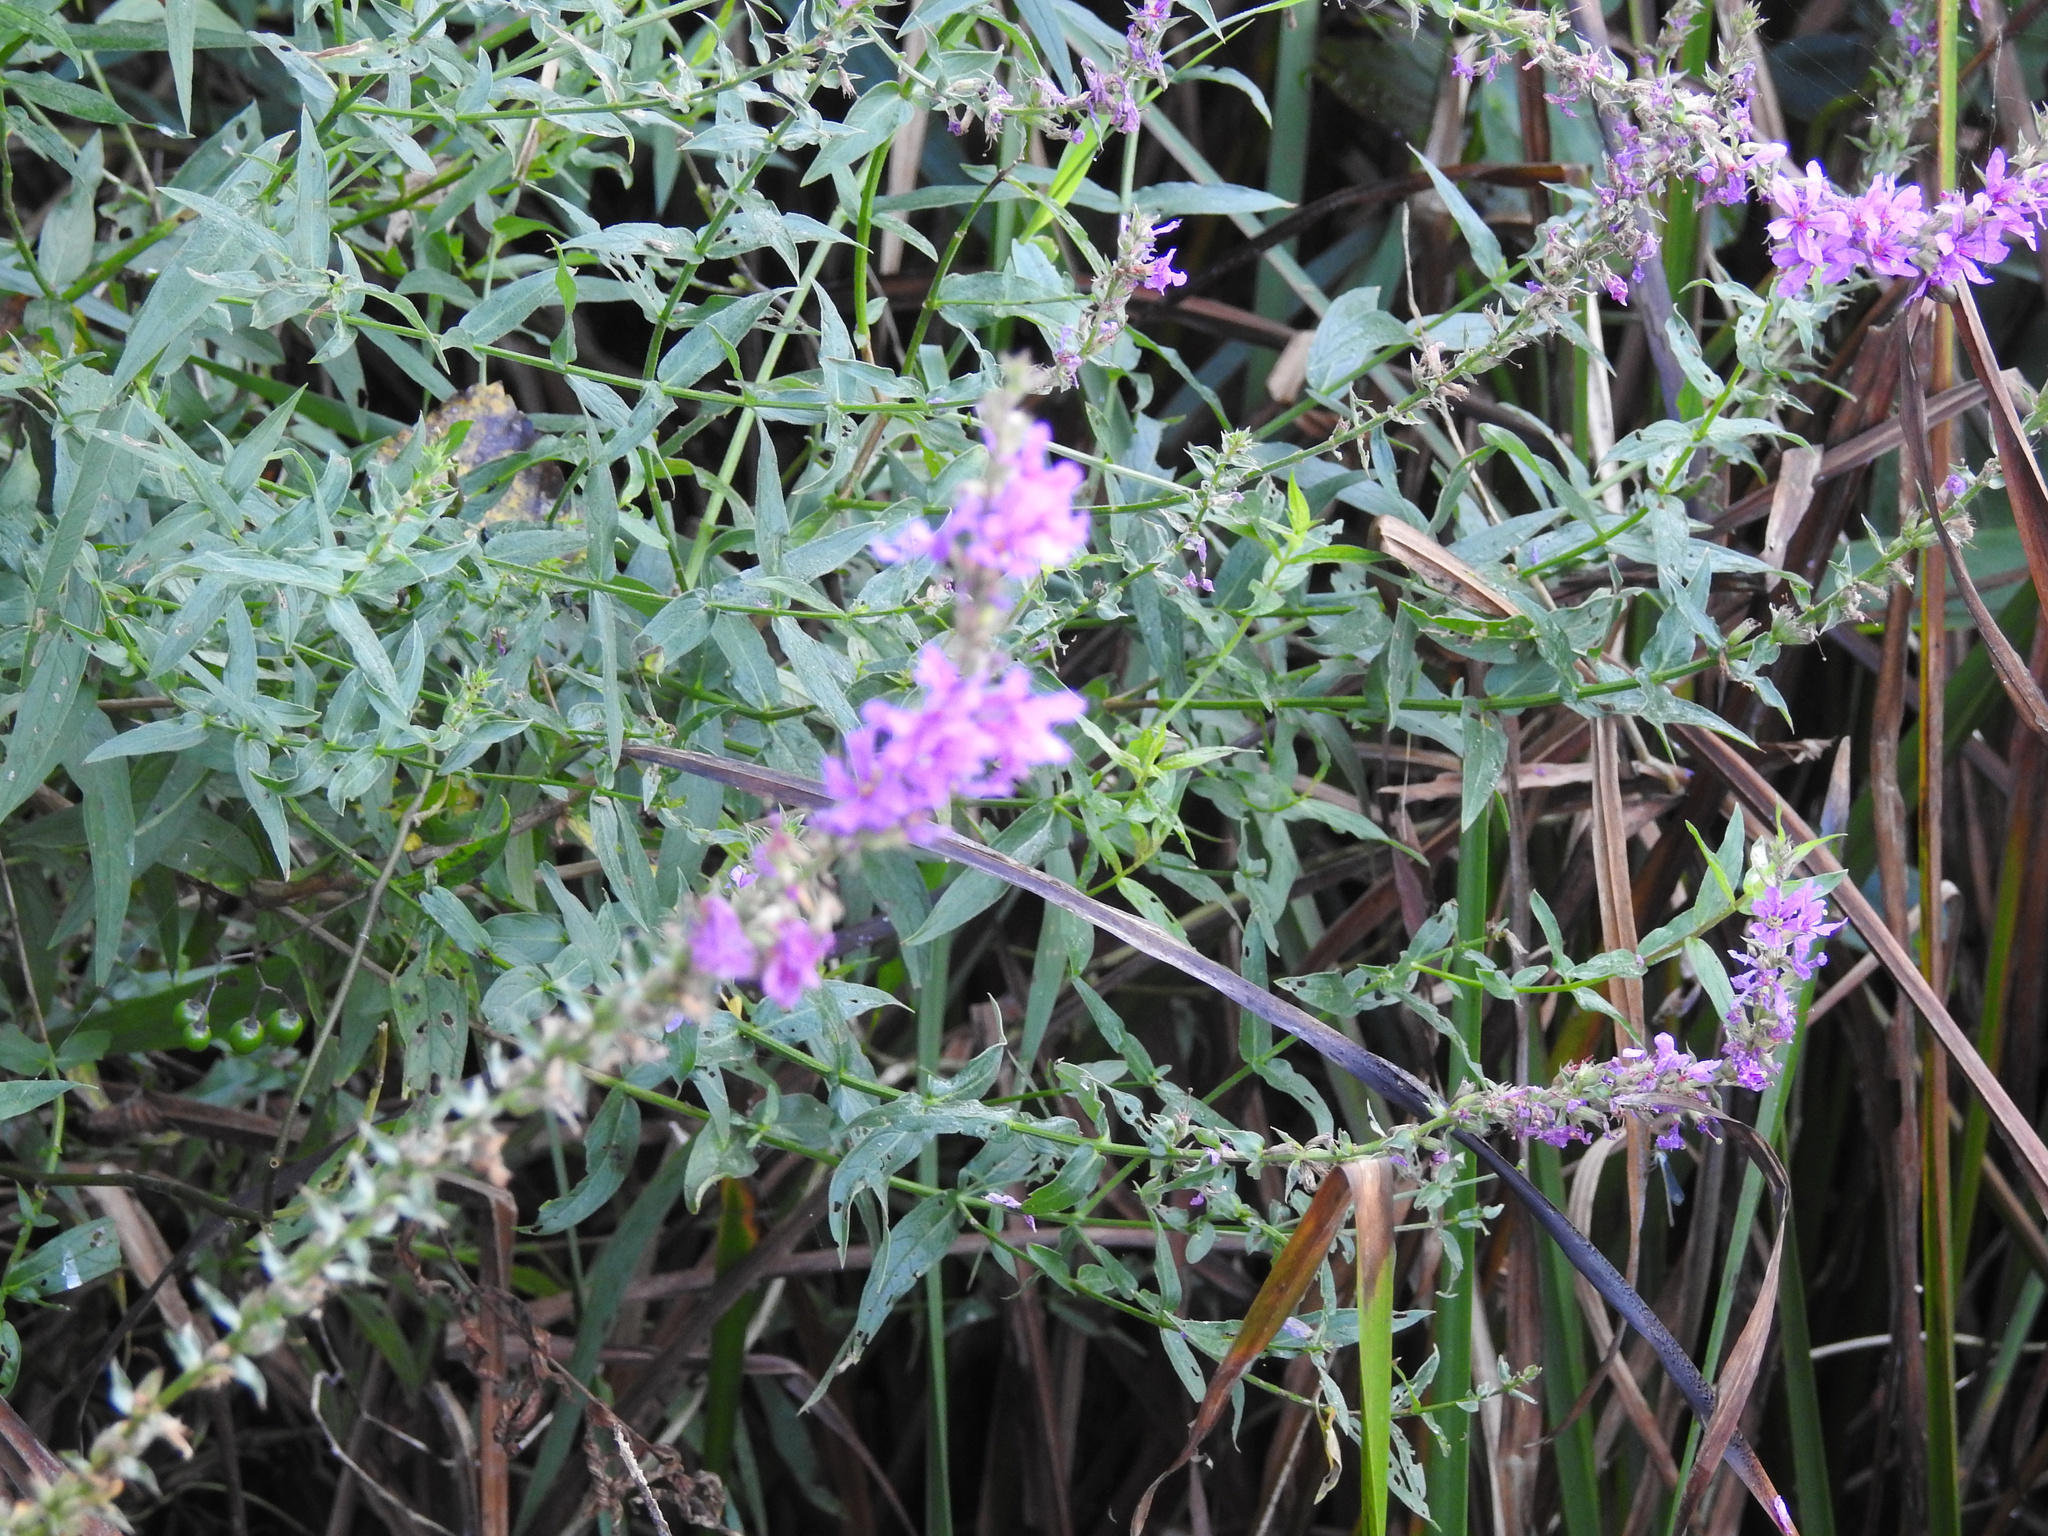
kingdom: Plantae
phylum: Tracheophyta
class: Magnoliopsida
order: Myrtales
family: Lythraceae
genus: Lythrum
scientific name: Lythrum salicaria
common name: Purple loosestrife
